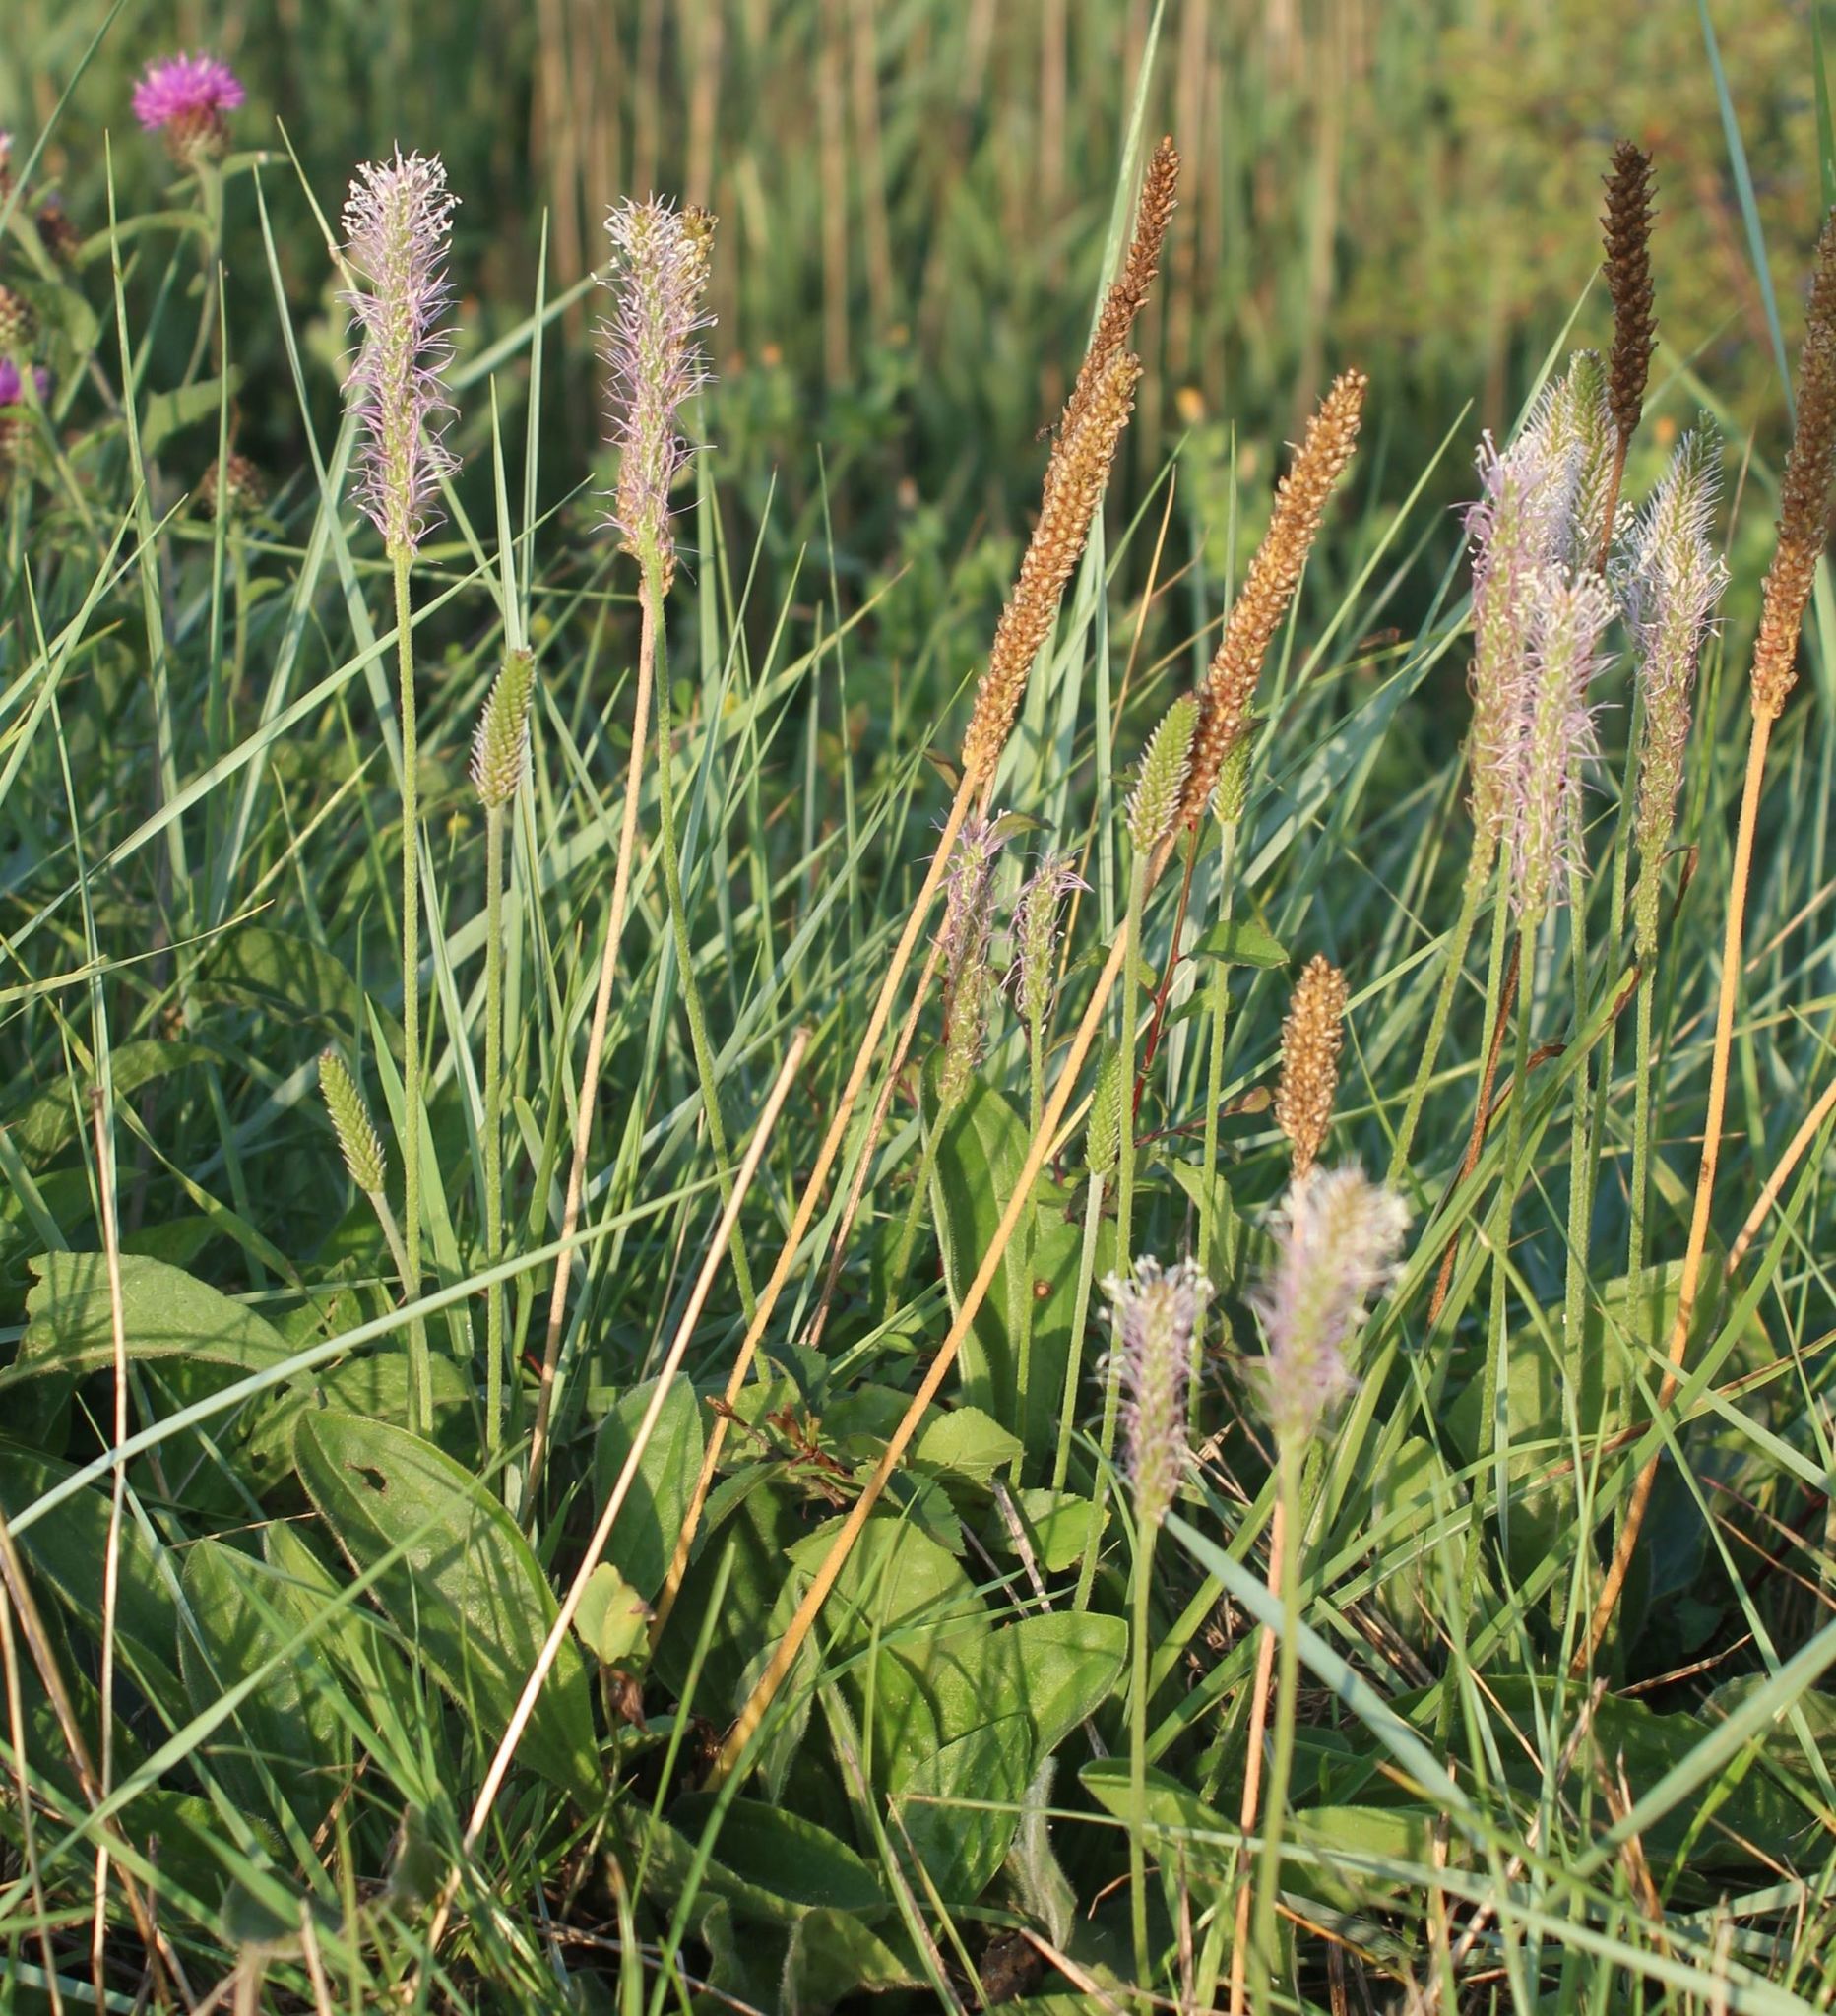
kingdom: Plantae
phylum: Tracheophyta
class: Magnoliopsida
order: Lamiales
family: Plantaginaceae
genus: Plantago
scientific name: Plantago media
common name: Hoary plantain
